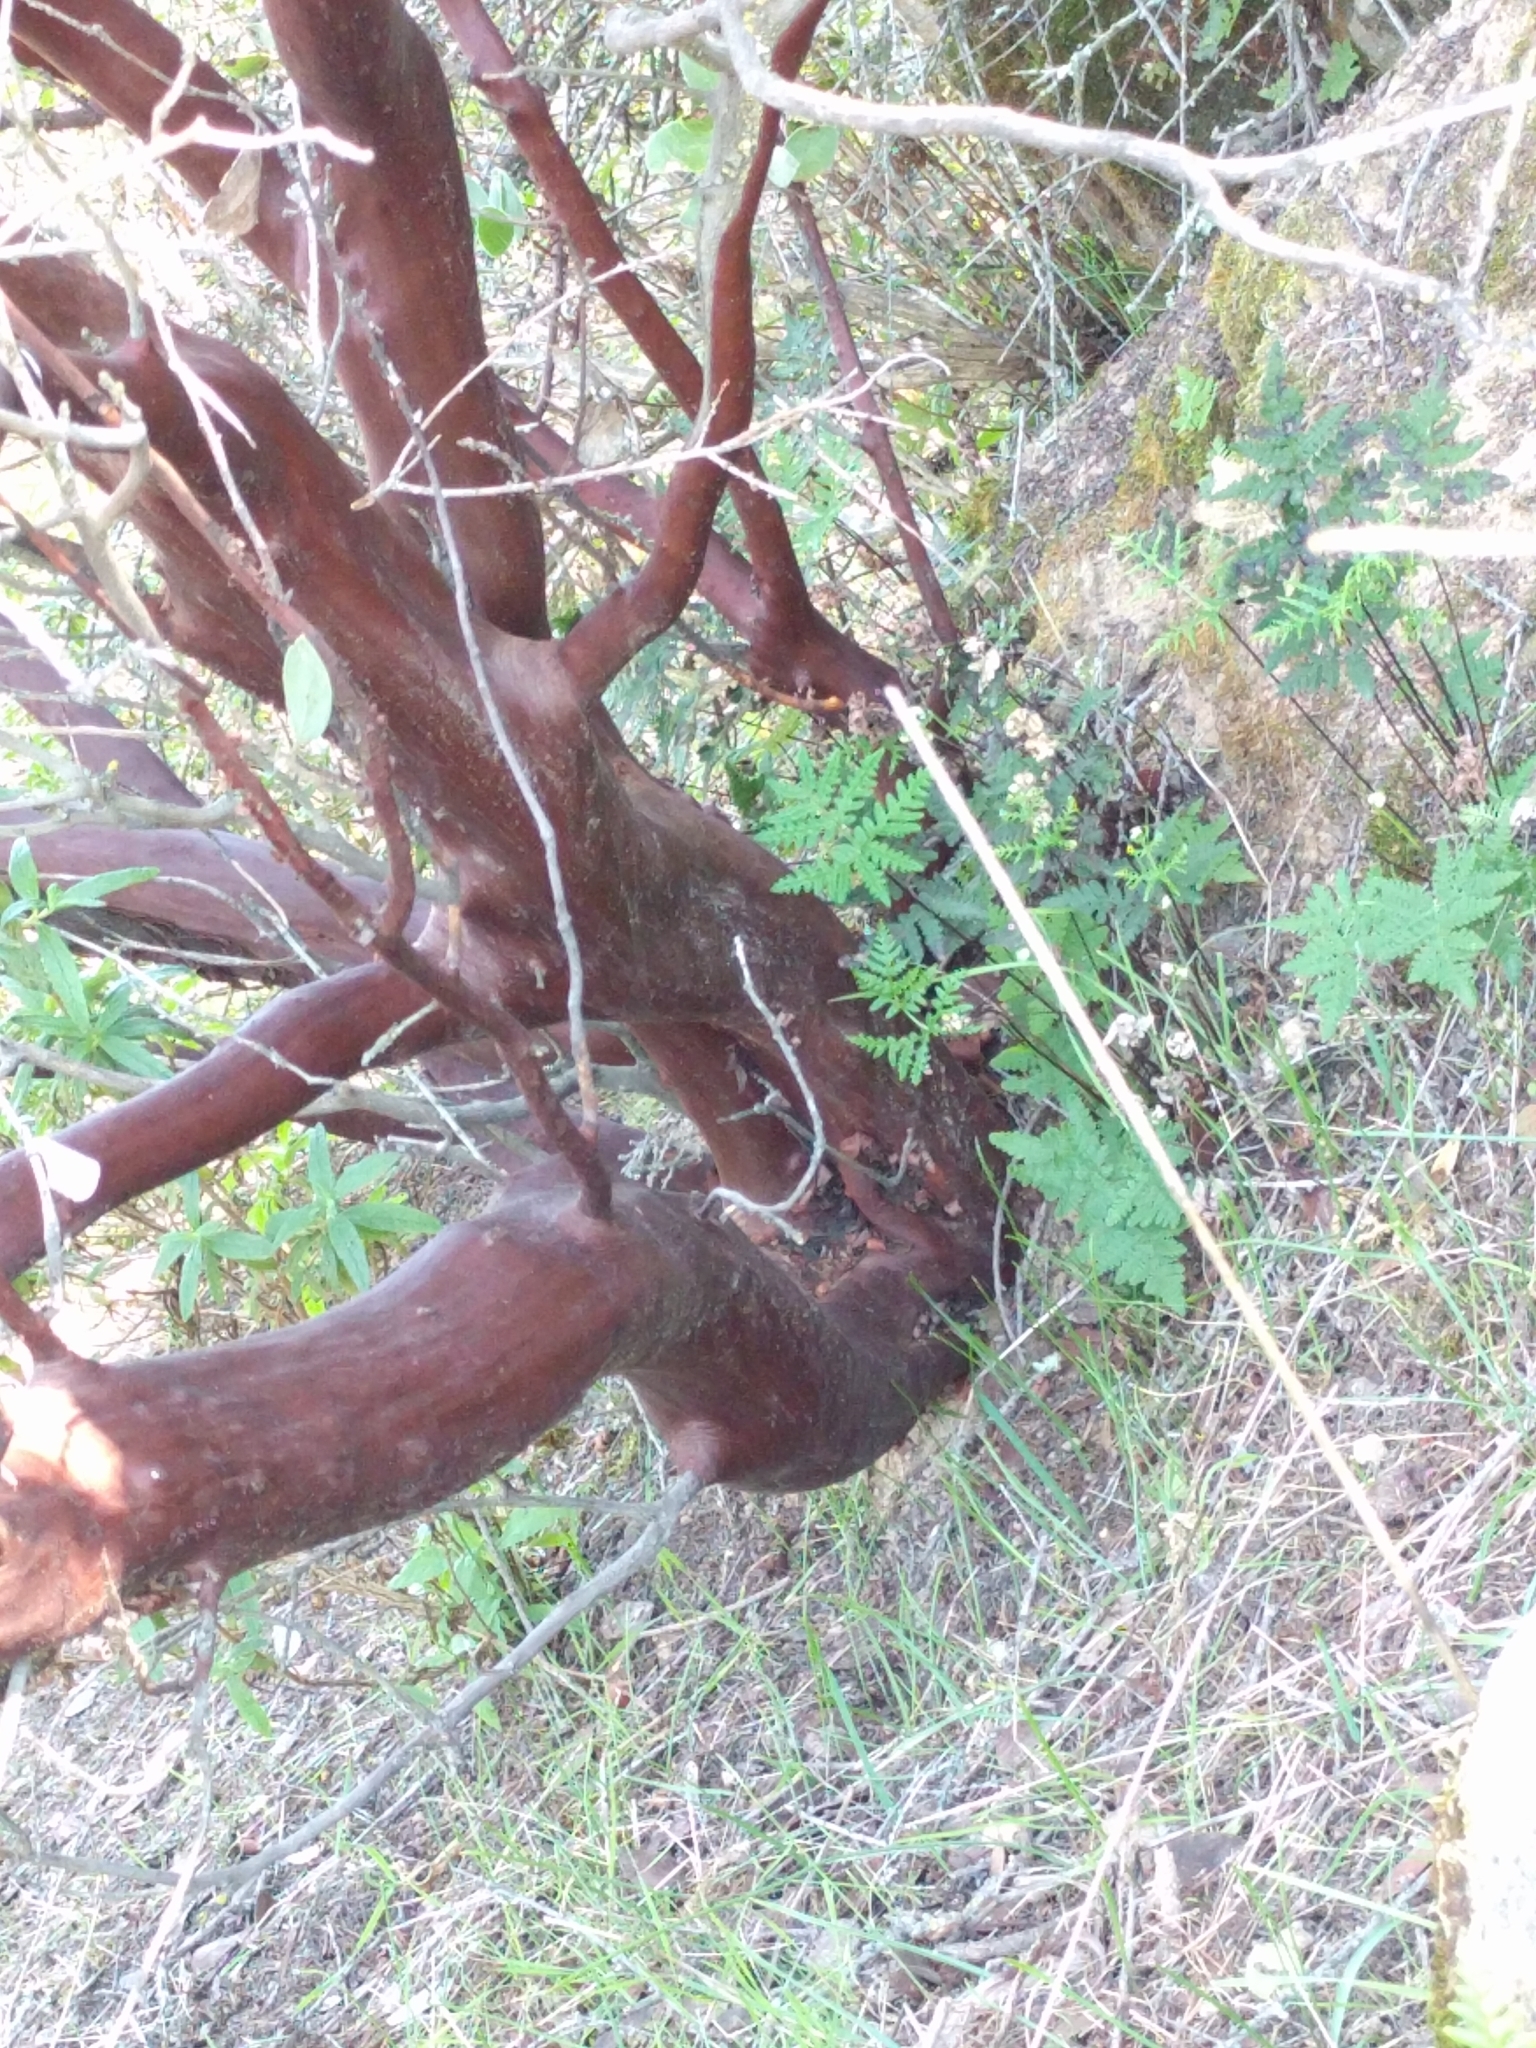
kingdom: Plantae
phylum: Tracheophyta
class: Magnoliopsida
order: Ericales
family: Ericaceae
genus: Arctostaphylos
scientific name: Arctostaphylos manzanita
